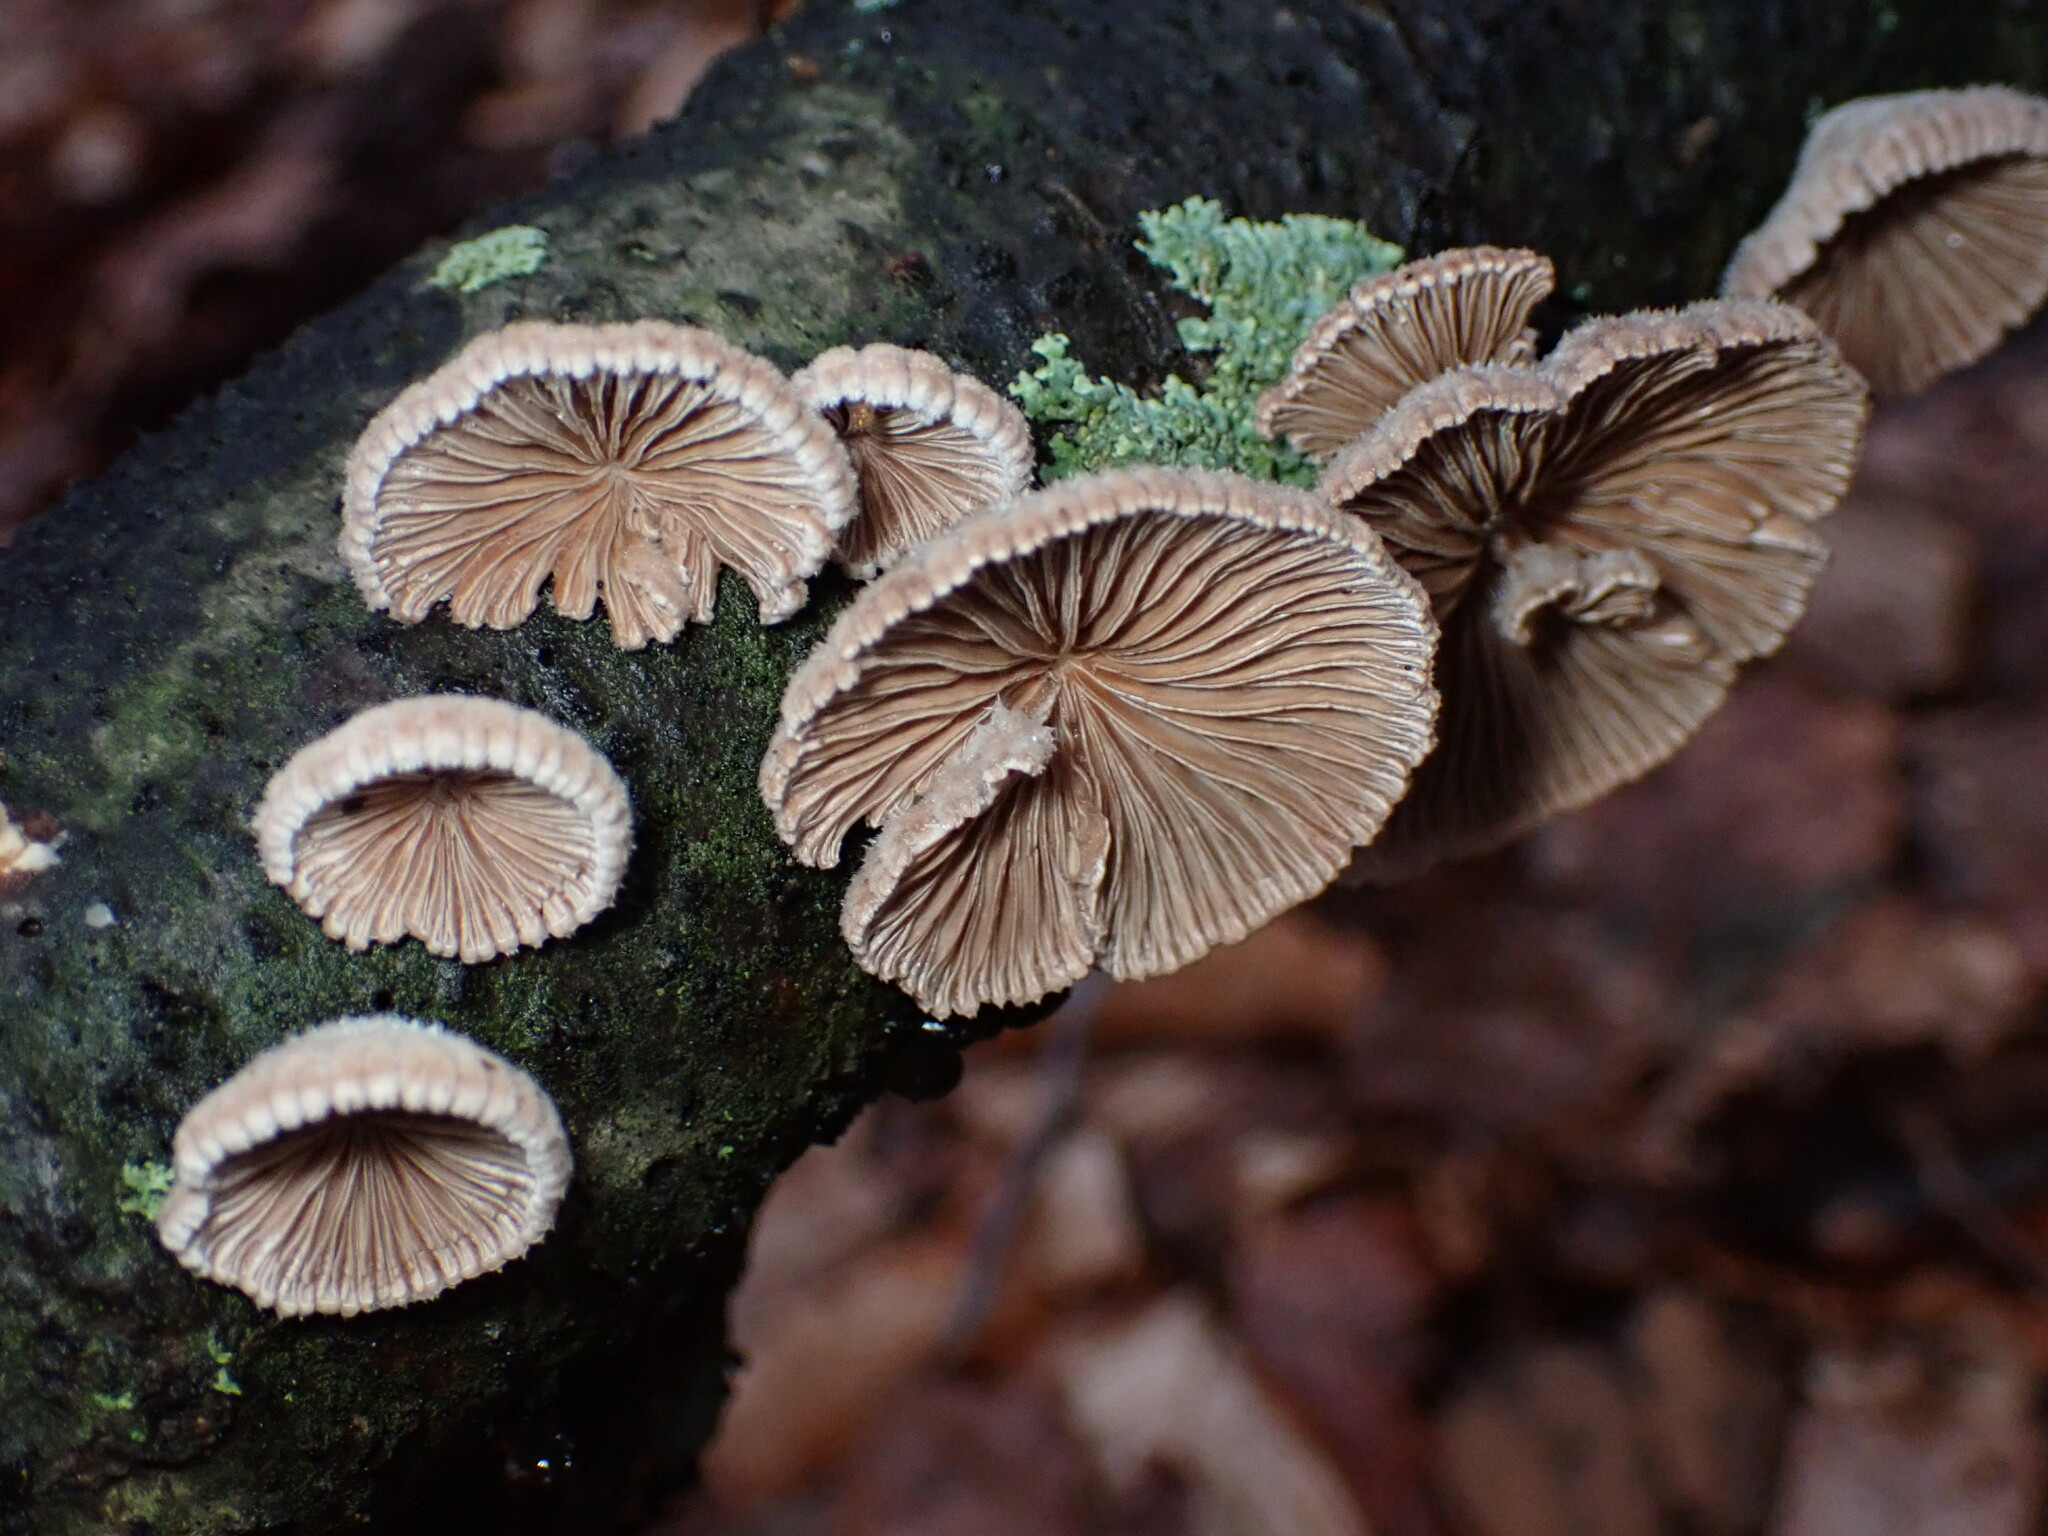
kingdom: Fungi
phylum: Basidiomycota
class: Agaricomycetes
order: Agaricales
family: Schizophyllaceae
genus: Schizophyllum
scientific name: Schizophyllum commune
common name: Common porecrust
